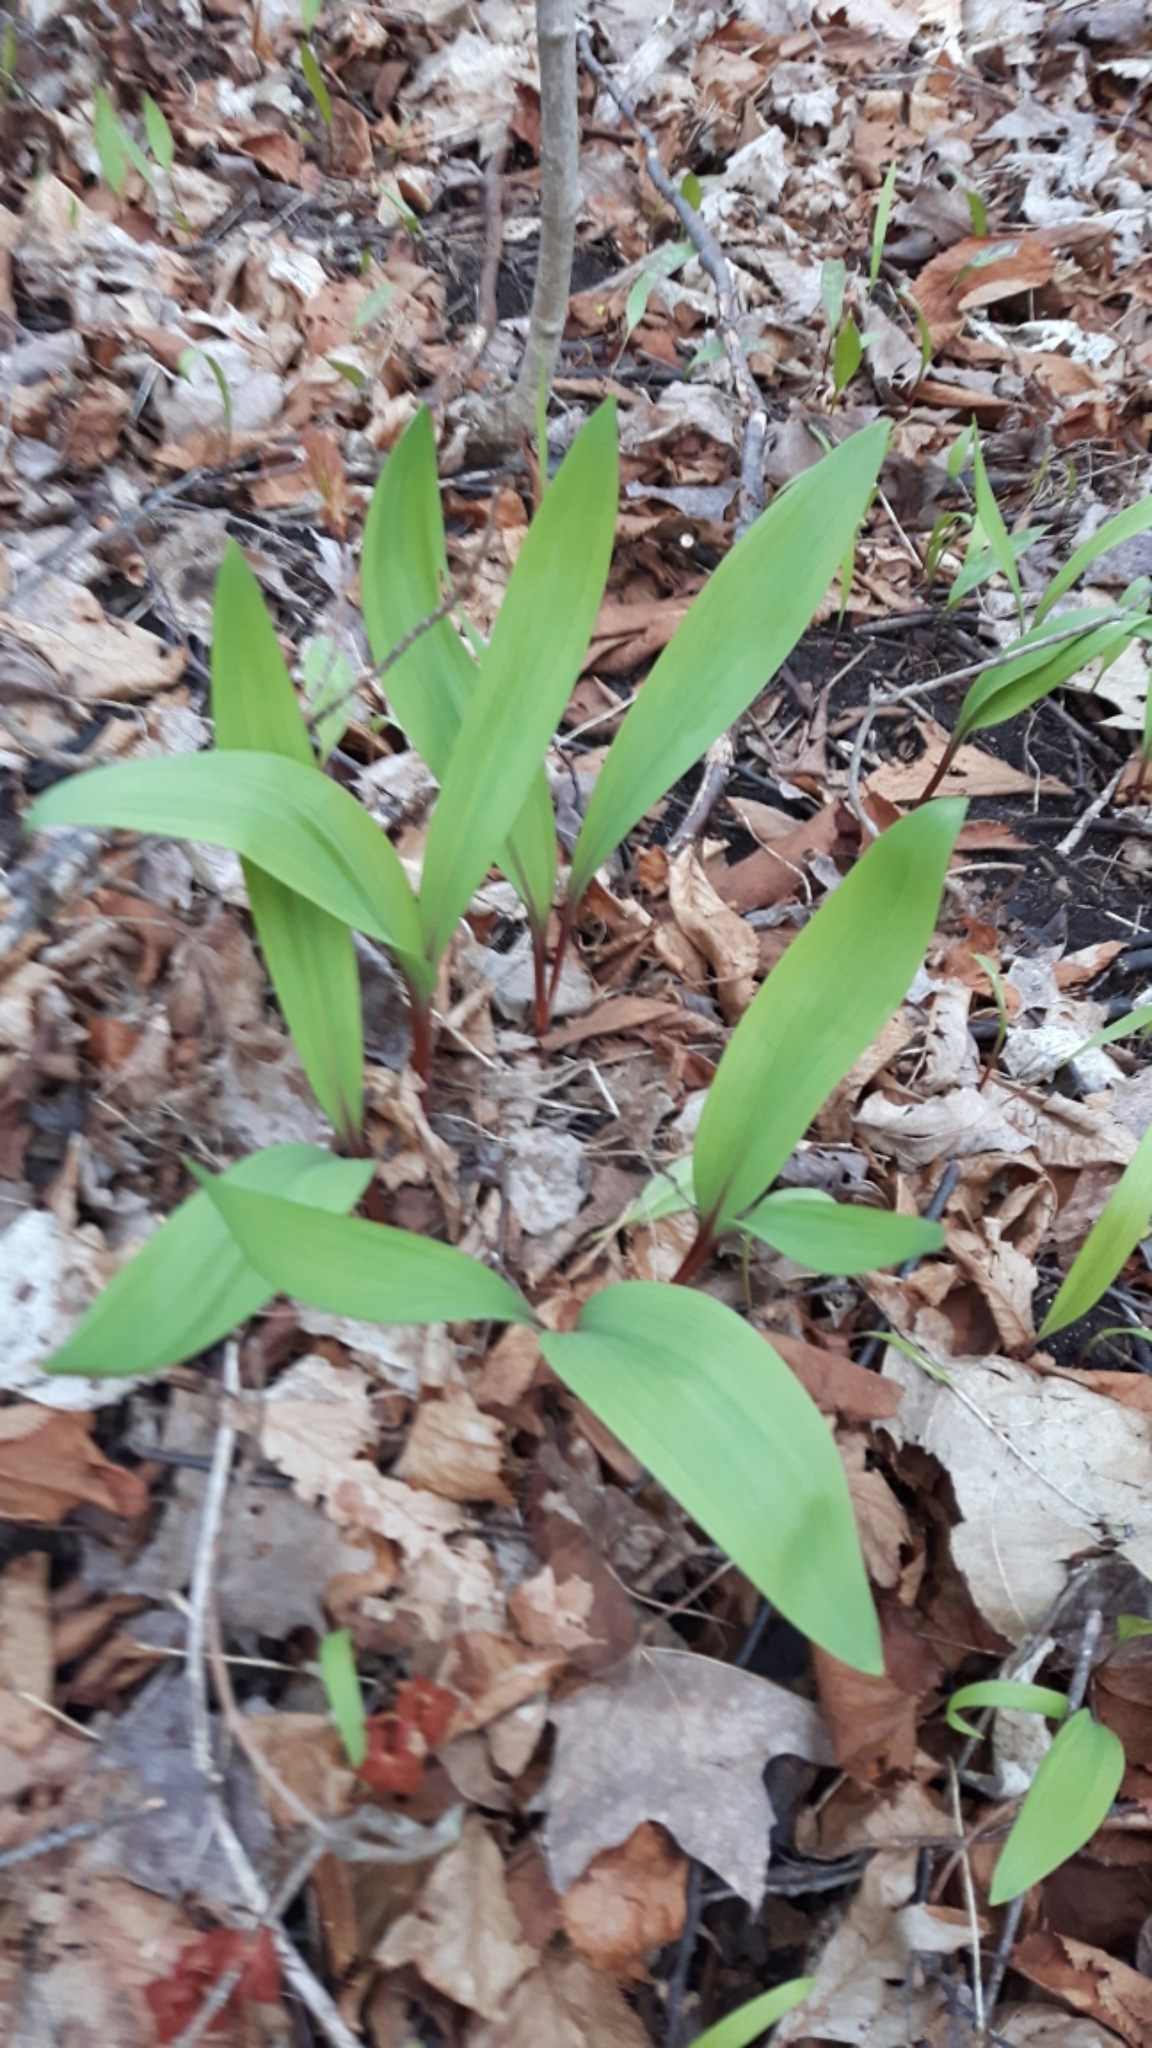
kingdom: Plantae
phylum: Tracheophyta
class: Liliopsida
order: Asparagales
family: Amaryllidaceae
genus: Allium
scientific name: Allium tricoccum
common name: Ramp
